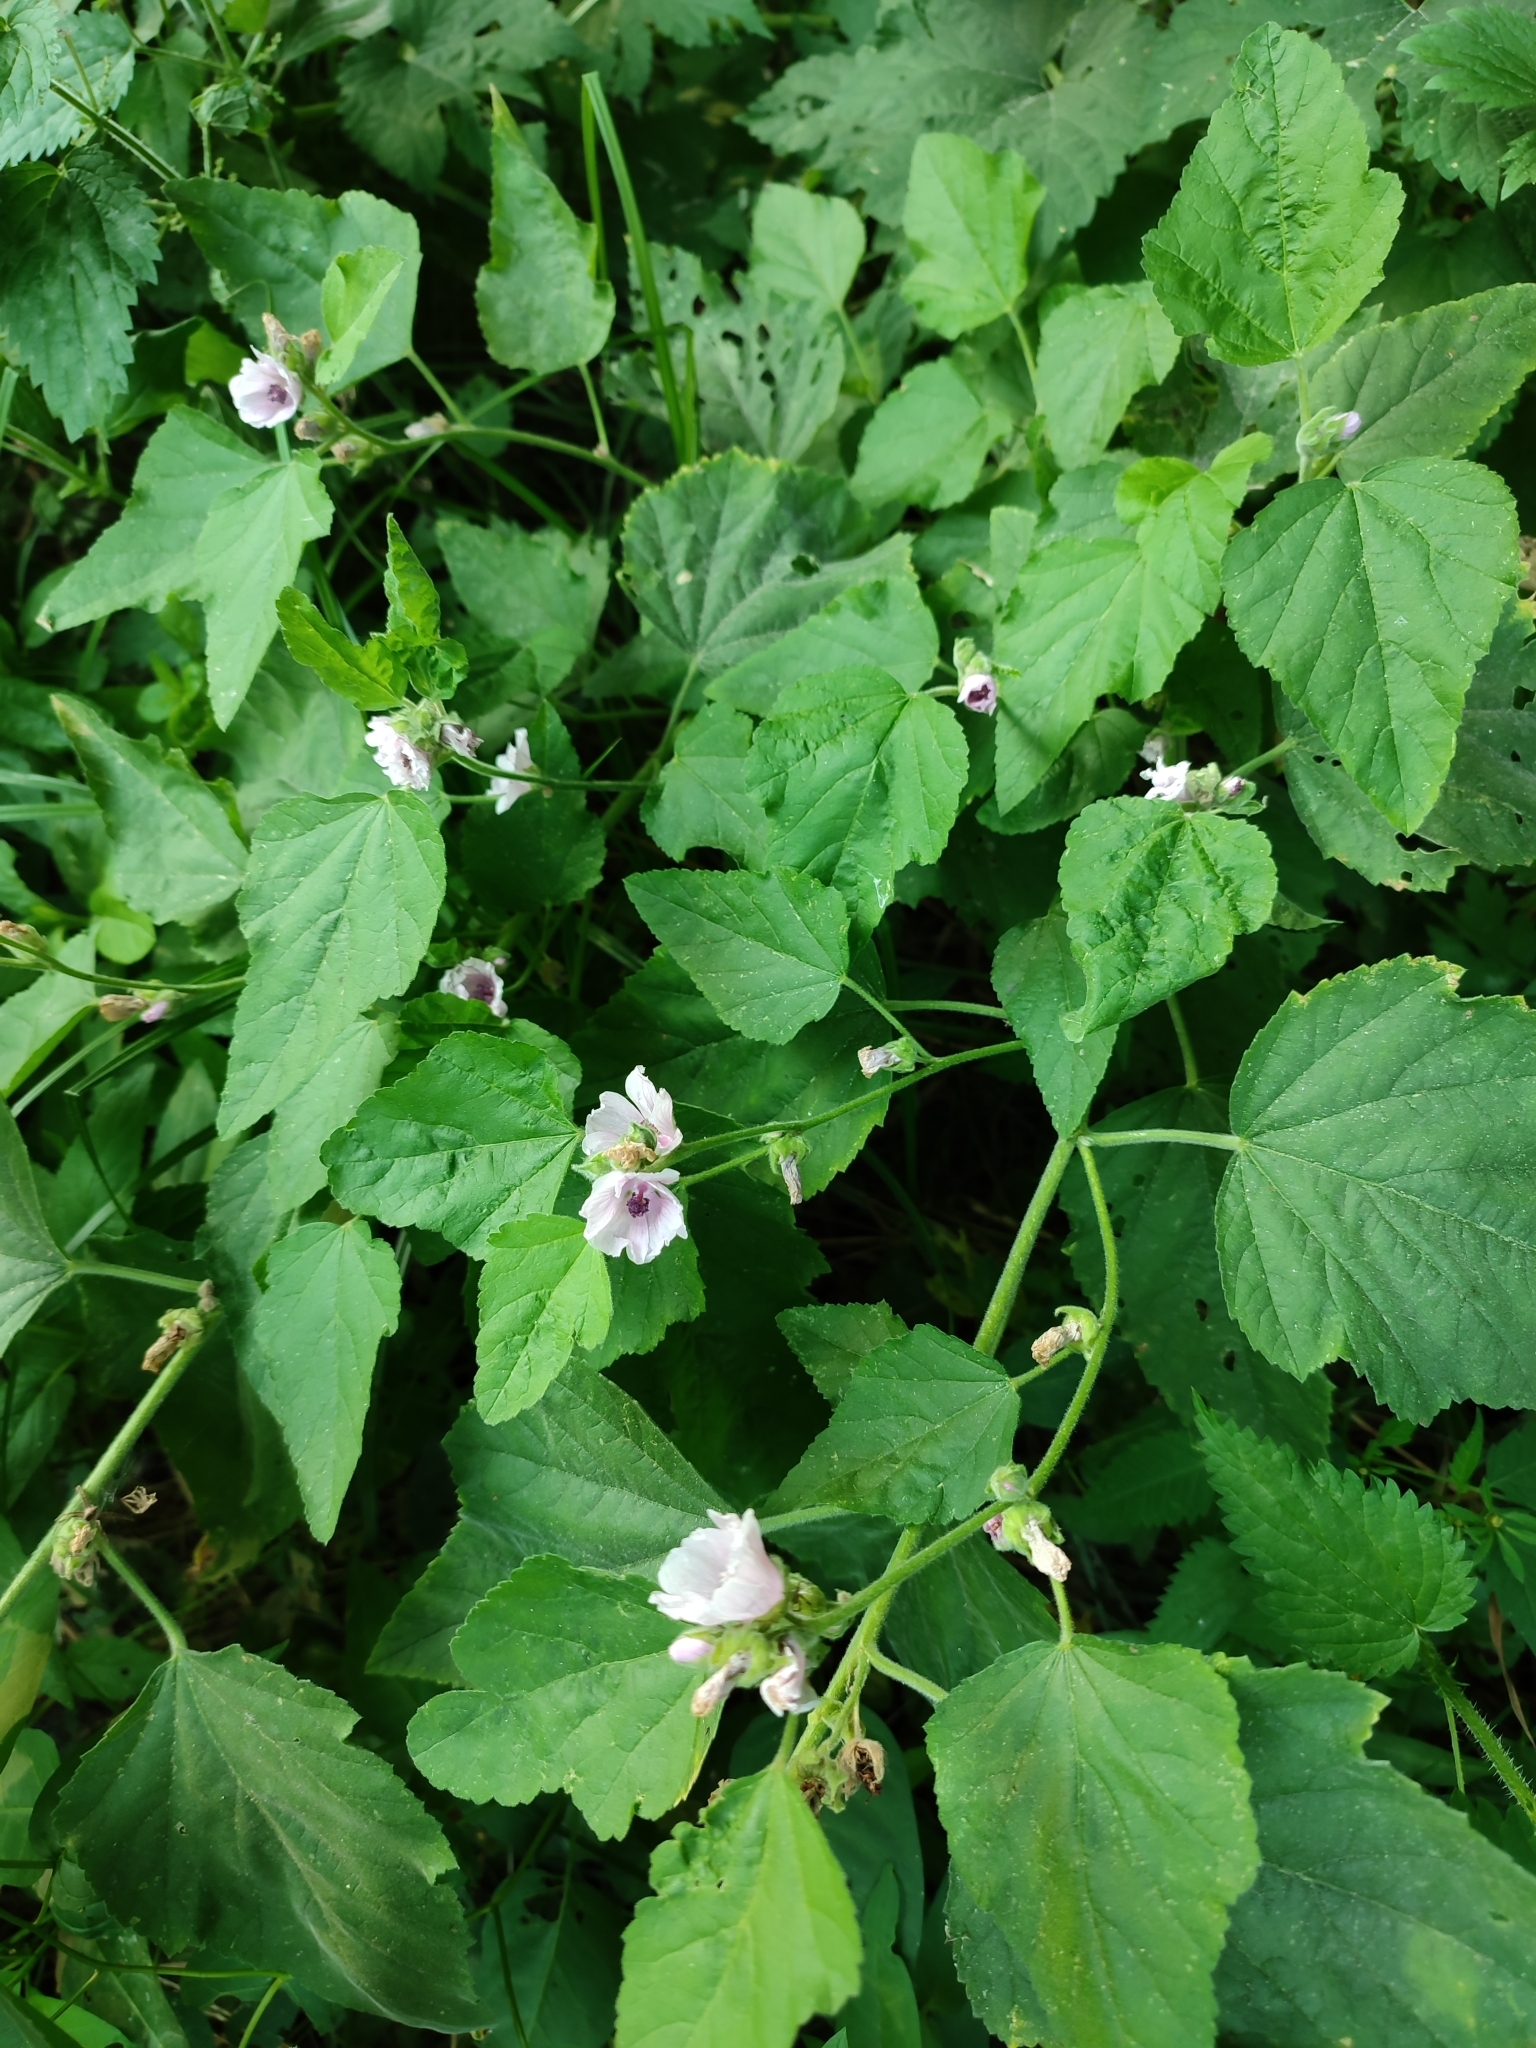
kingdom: Plantae
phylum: Tracheophyta
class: Magnoliopsida
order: Malvales
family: Malvaceae
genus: Althaea
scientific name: Althaea officinalis
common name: Marsh-mallow
